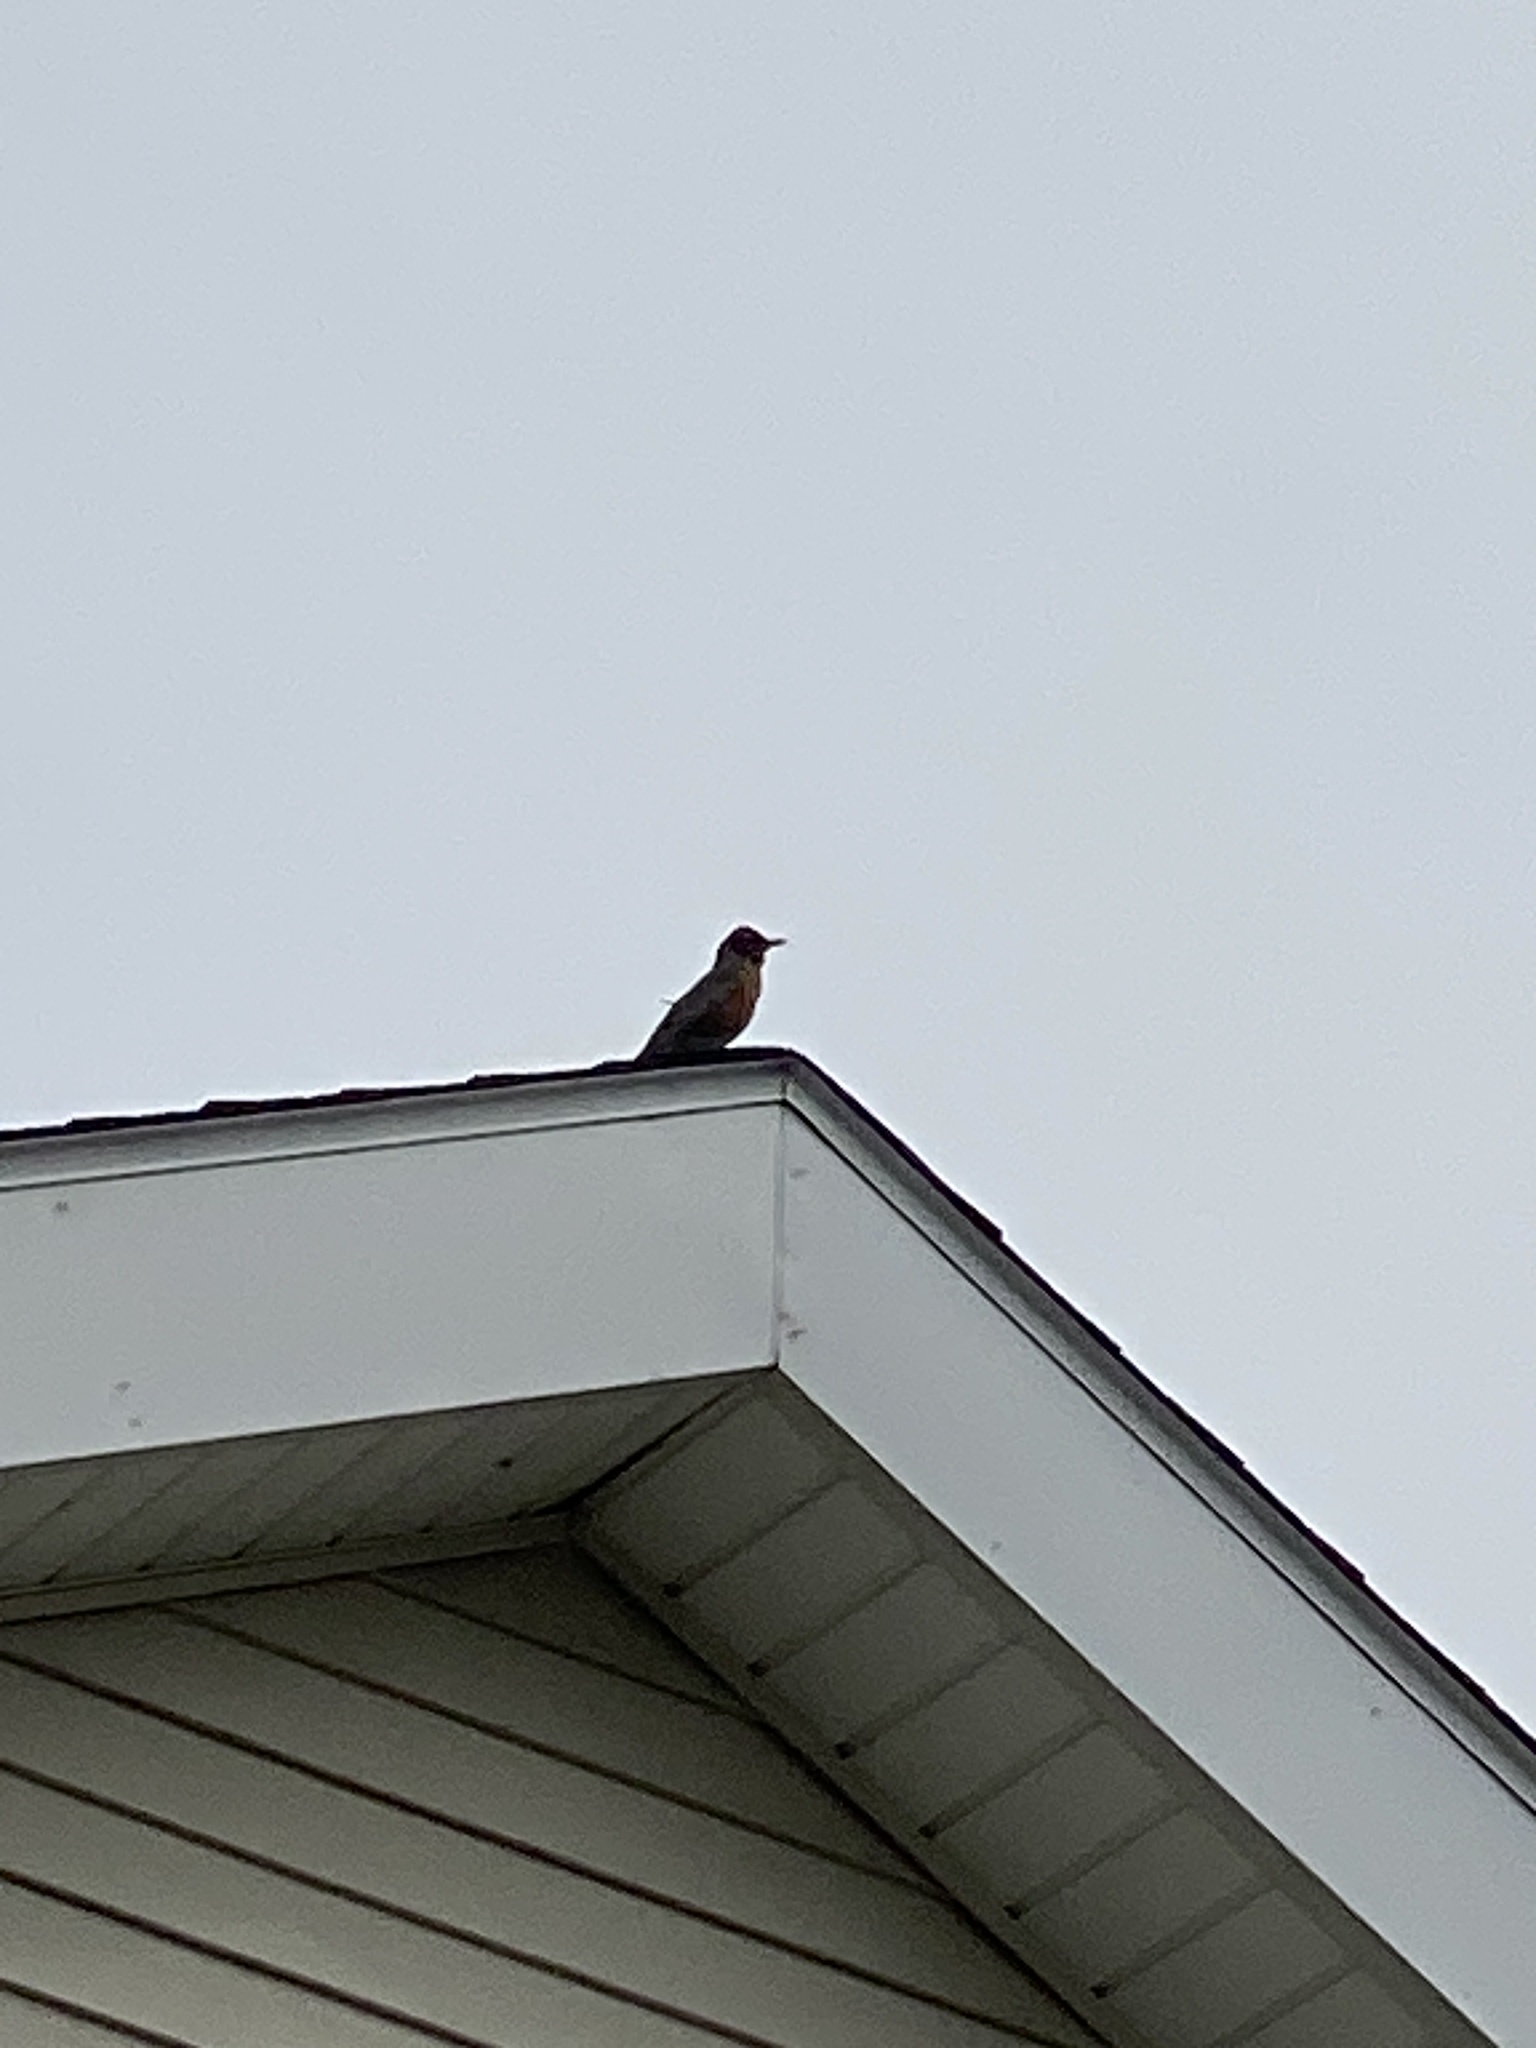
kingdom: Animalia
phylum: Chordata
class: Aves
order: Passeriformes
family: Turdidae
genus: Turdus
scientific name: Turdus migratorius
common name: American robin
